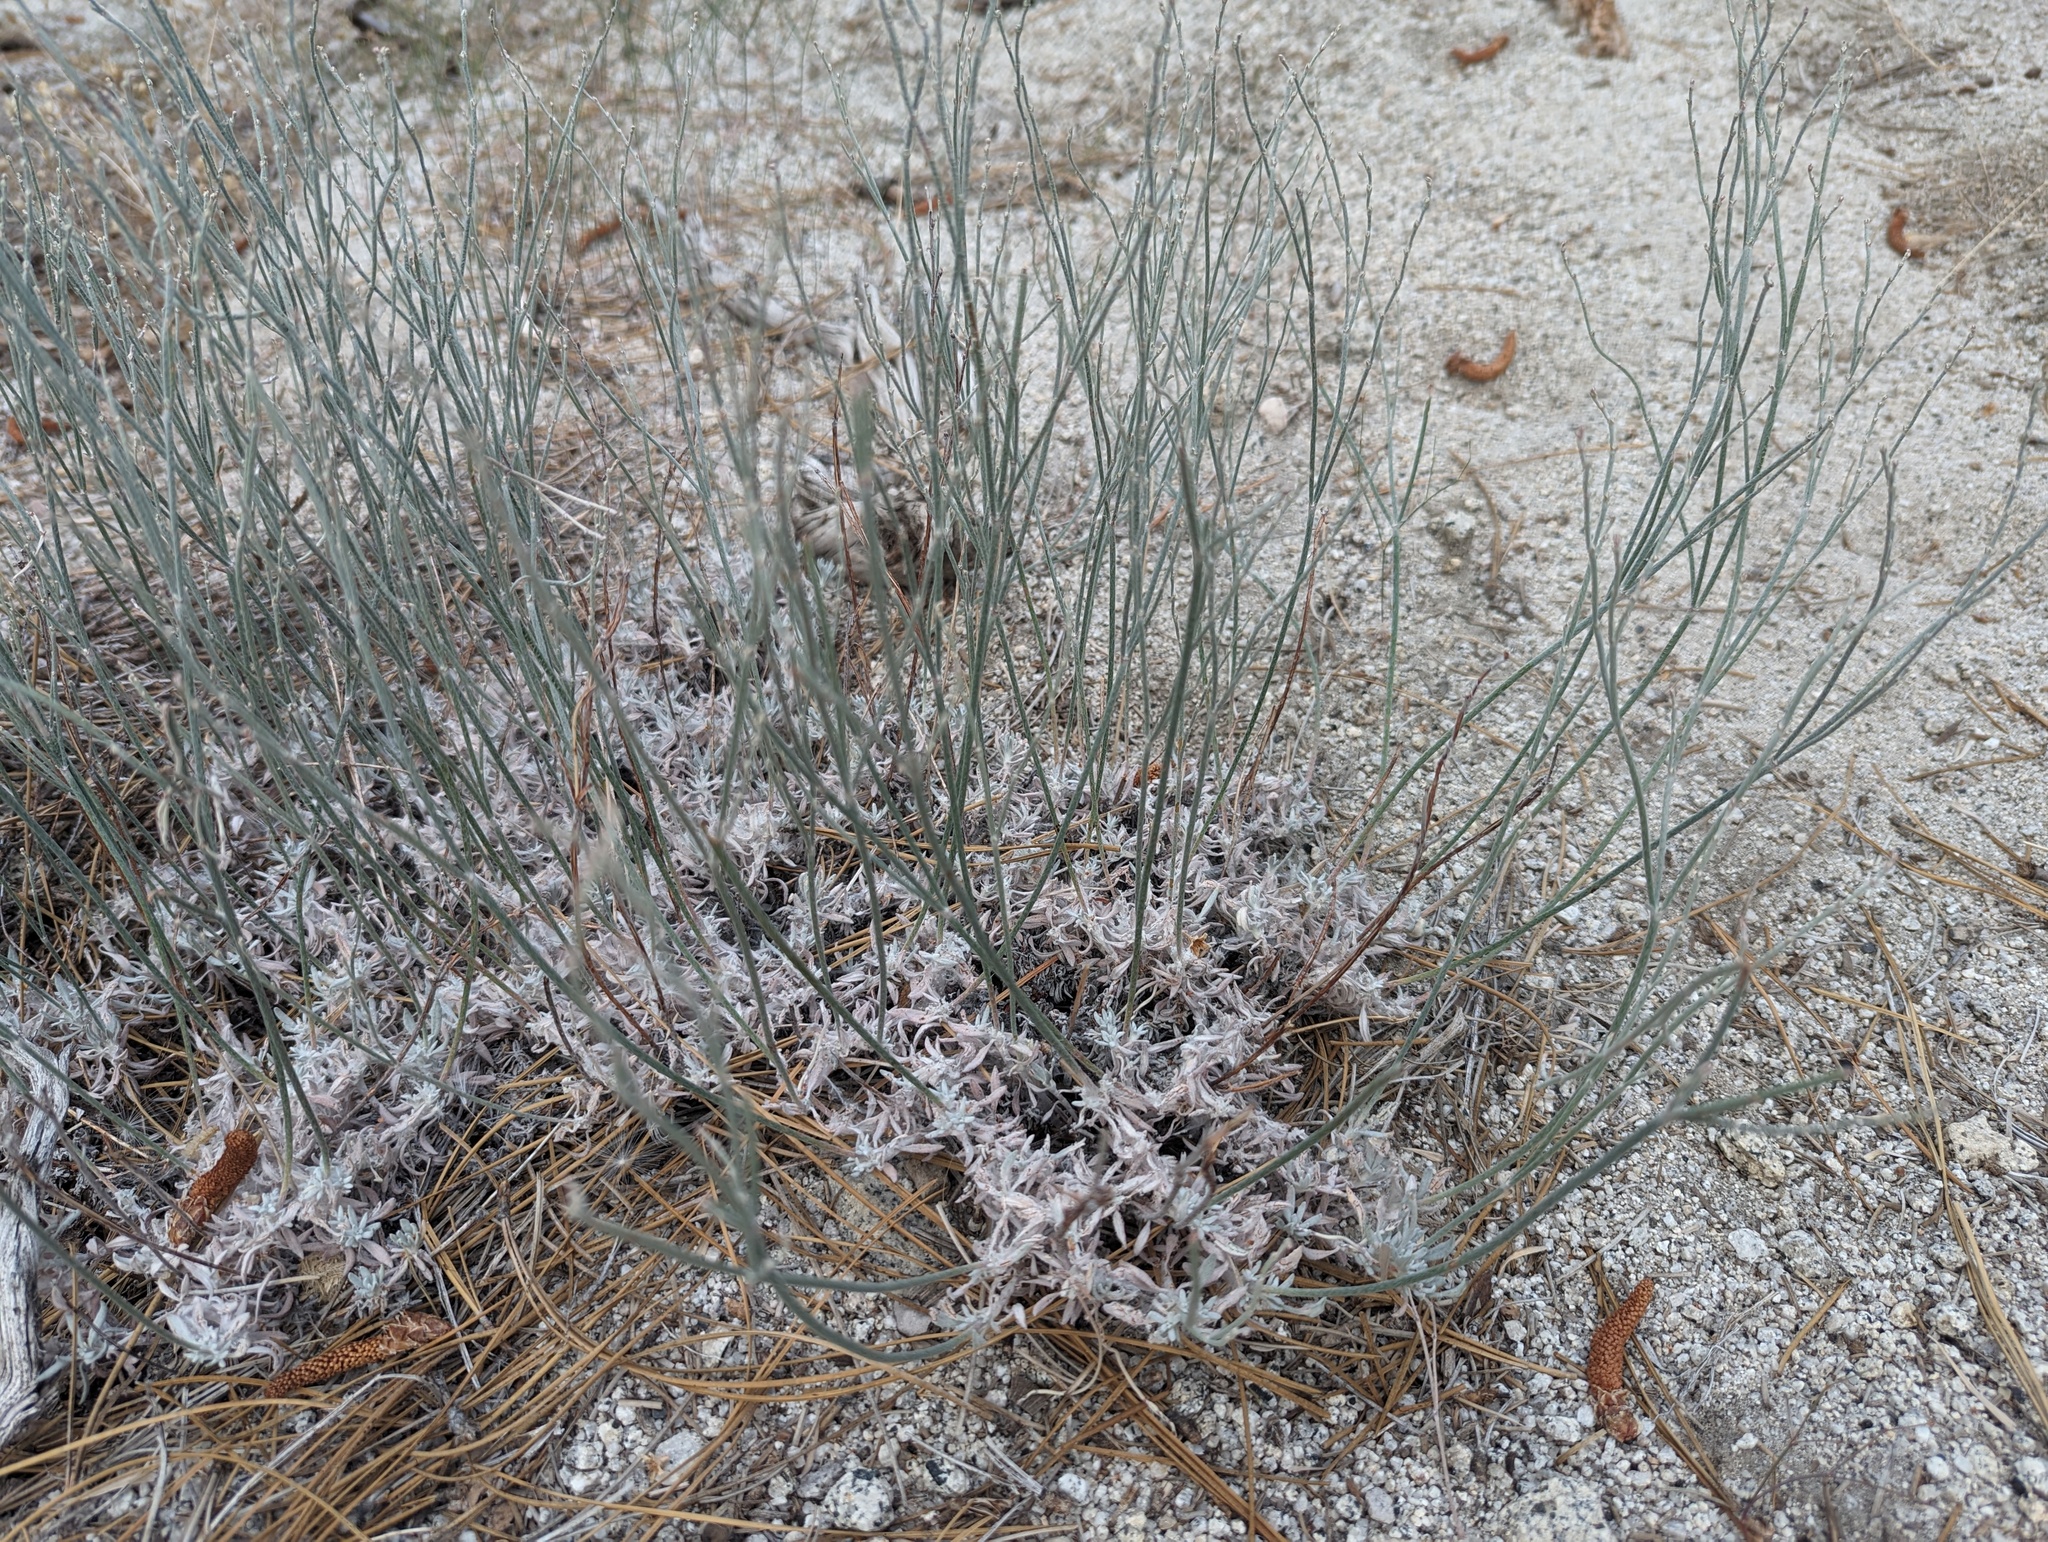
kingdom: Plantae
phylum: Tracheophyta
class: Magnoliopsida
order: Caryophyllales
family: Polygonaceae
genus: Eriogonum
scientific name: Eriogonum wrightii
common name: Bastard-sage
